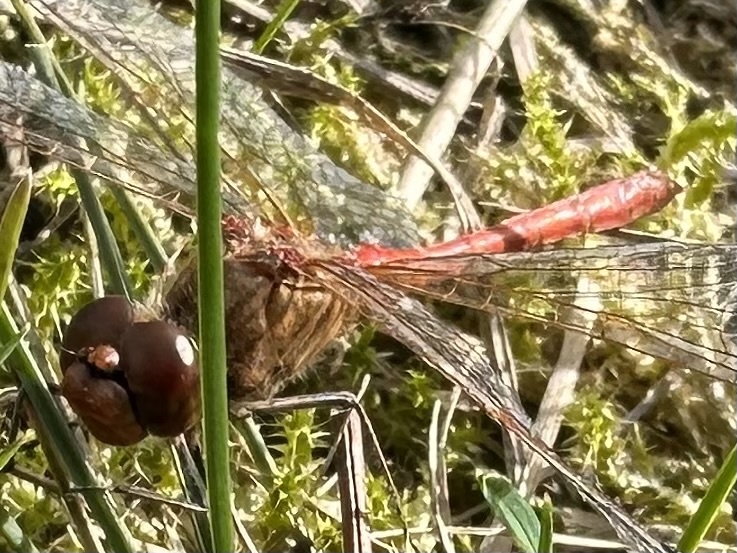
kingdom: Animalia
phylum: Arthropoda
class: Insecta
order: Odonata
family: Libellulidae
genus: Sympetrum
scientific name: Sympetrum meridionale
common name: Southern darter
